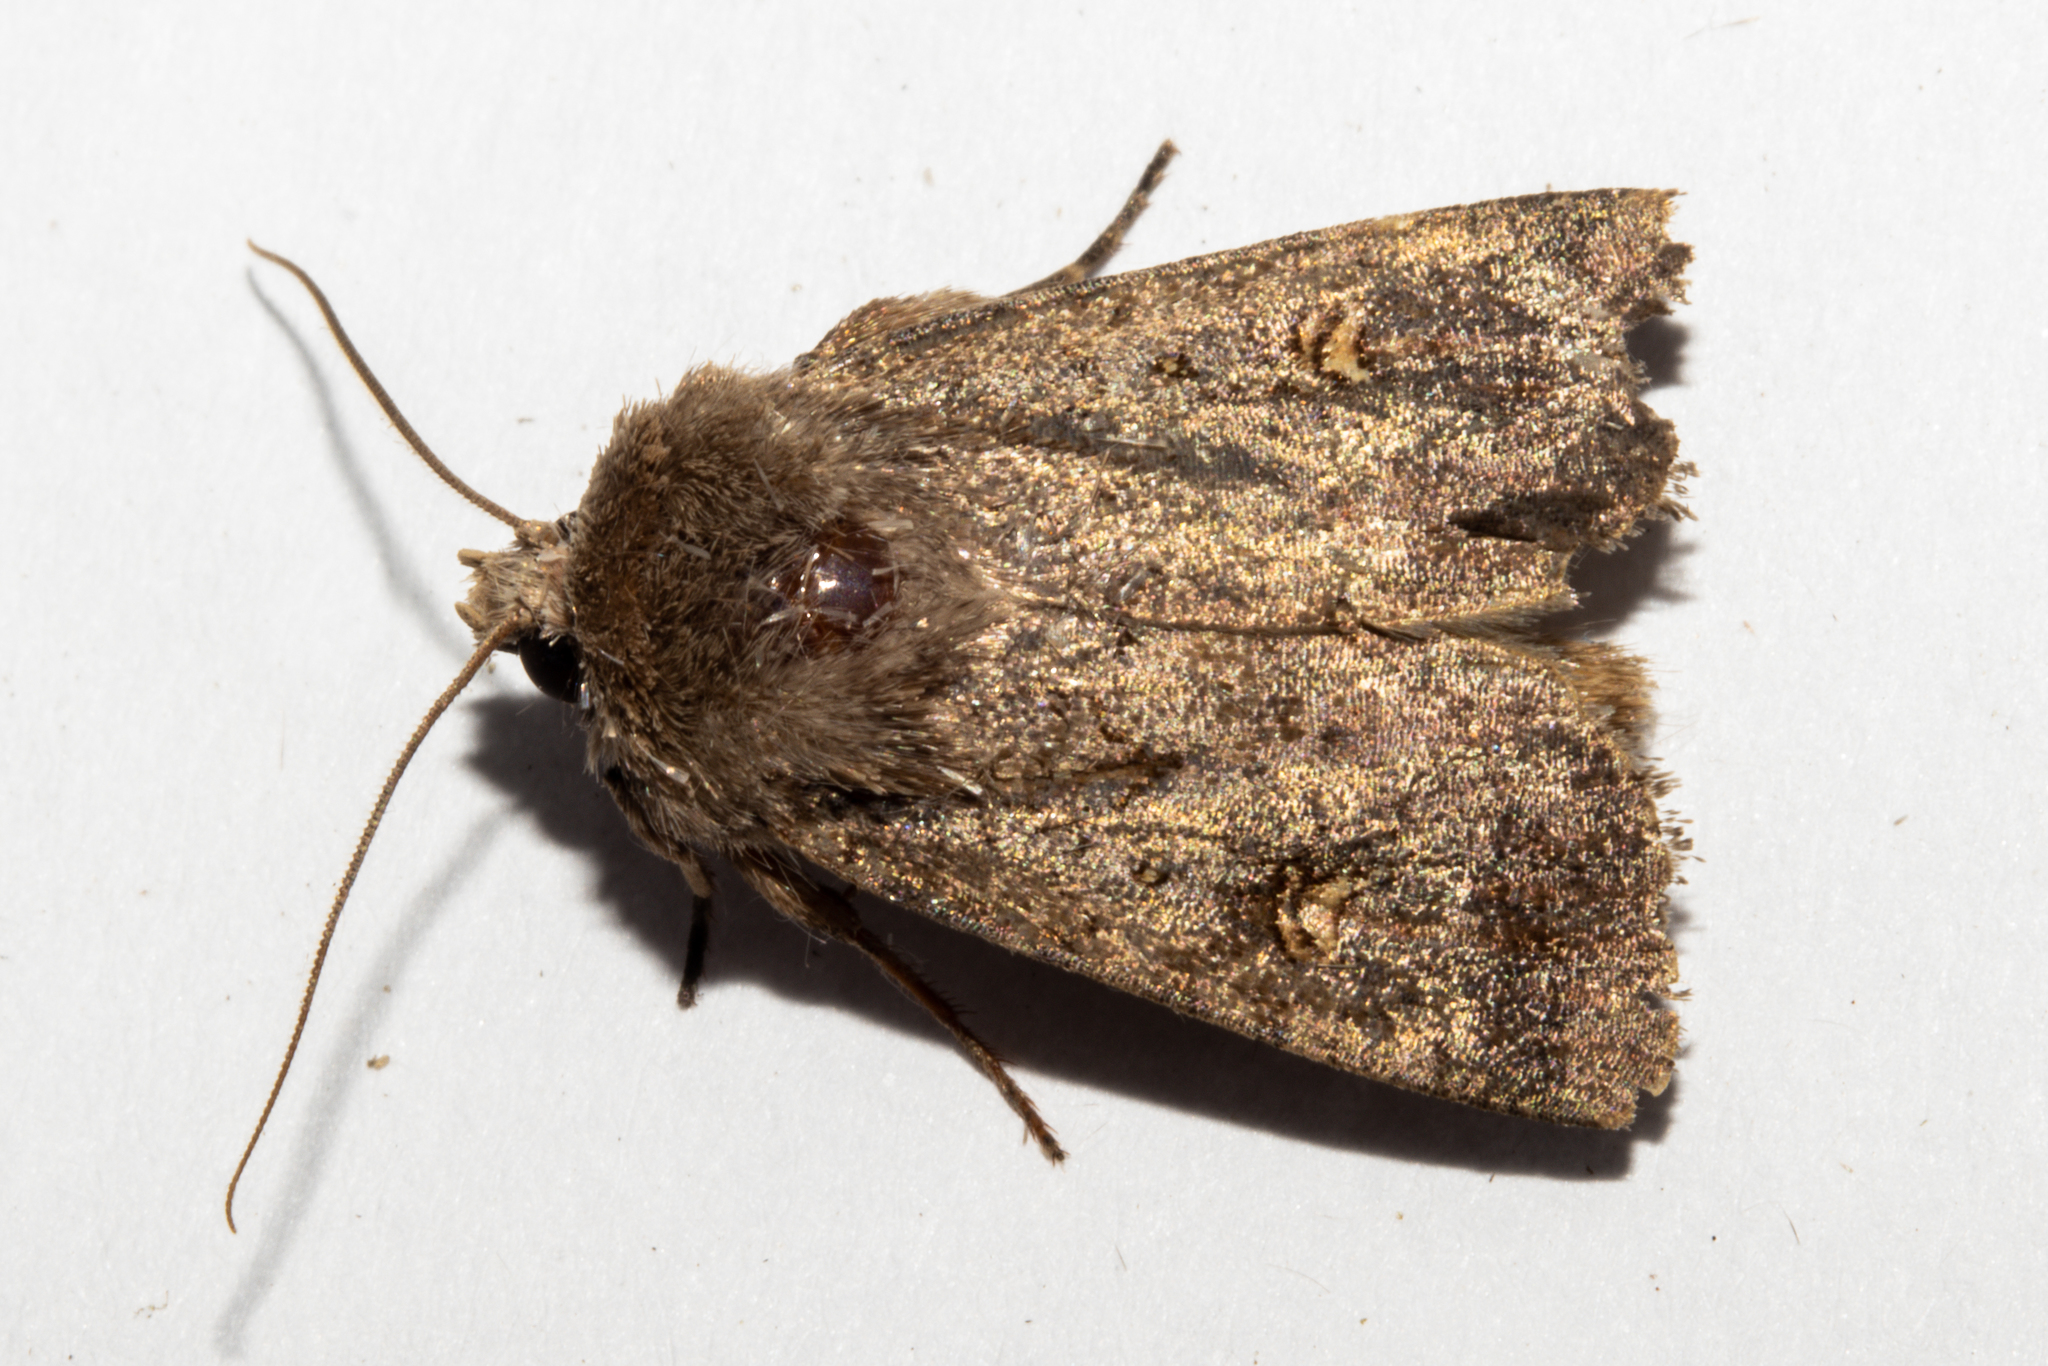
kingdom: Animalia
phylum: Arthropoda
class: Insecta
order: Lepidoptera
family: Noctuidae
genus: Proteuxoa
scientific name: Proteuxoa tetronycha
